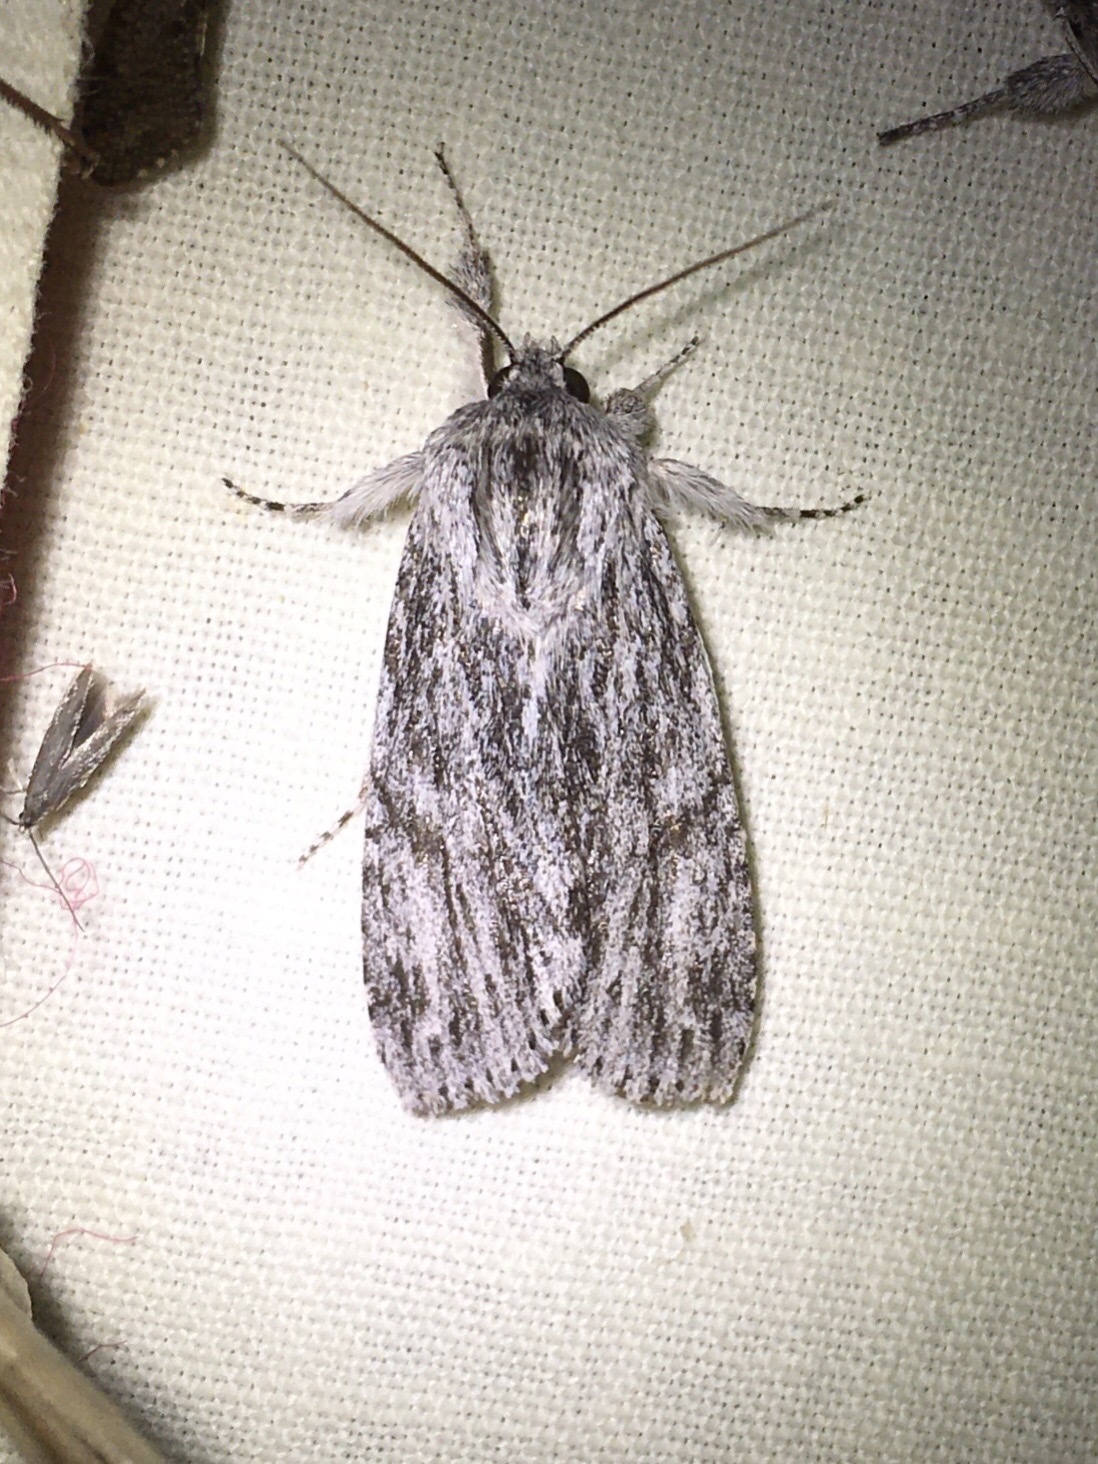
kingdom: Animalia
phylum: Arthropoda
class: Insecta
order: Lepidoptera
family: Noctuidae
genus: Acronicta
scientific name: Acronicta oblinita
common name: Smeared dagger
